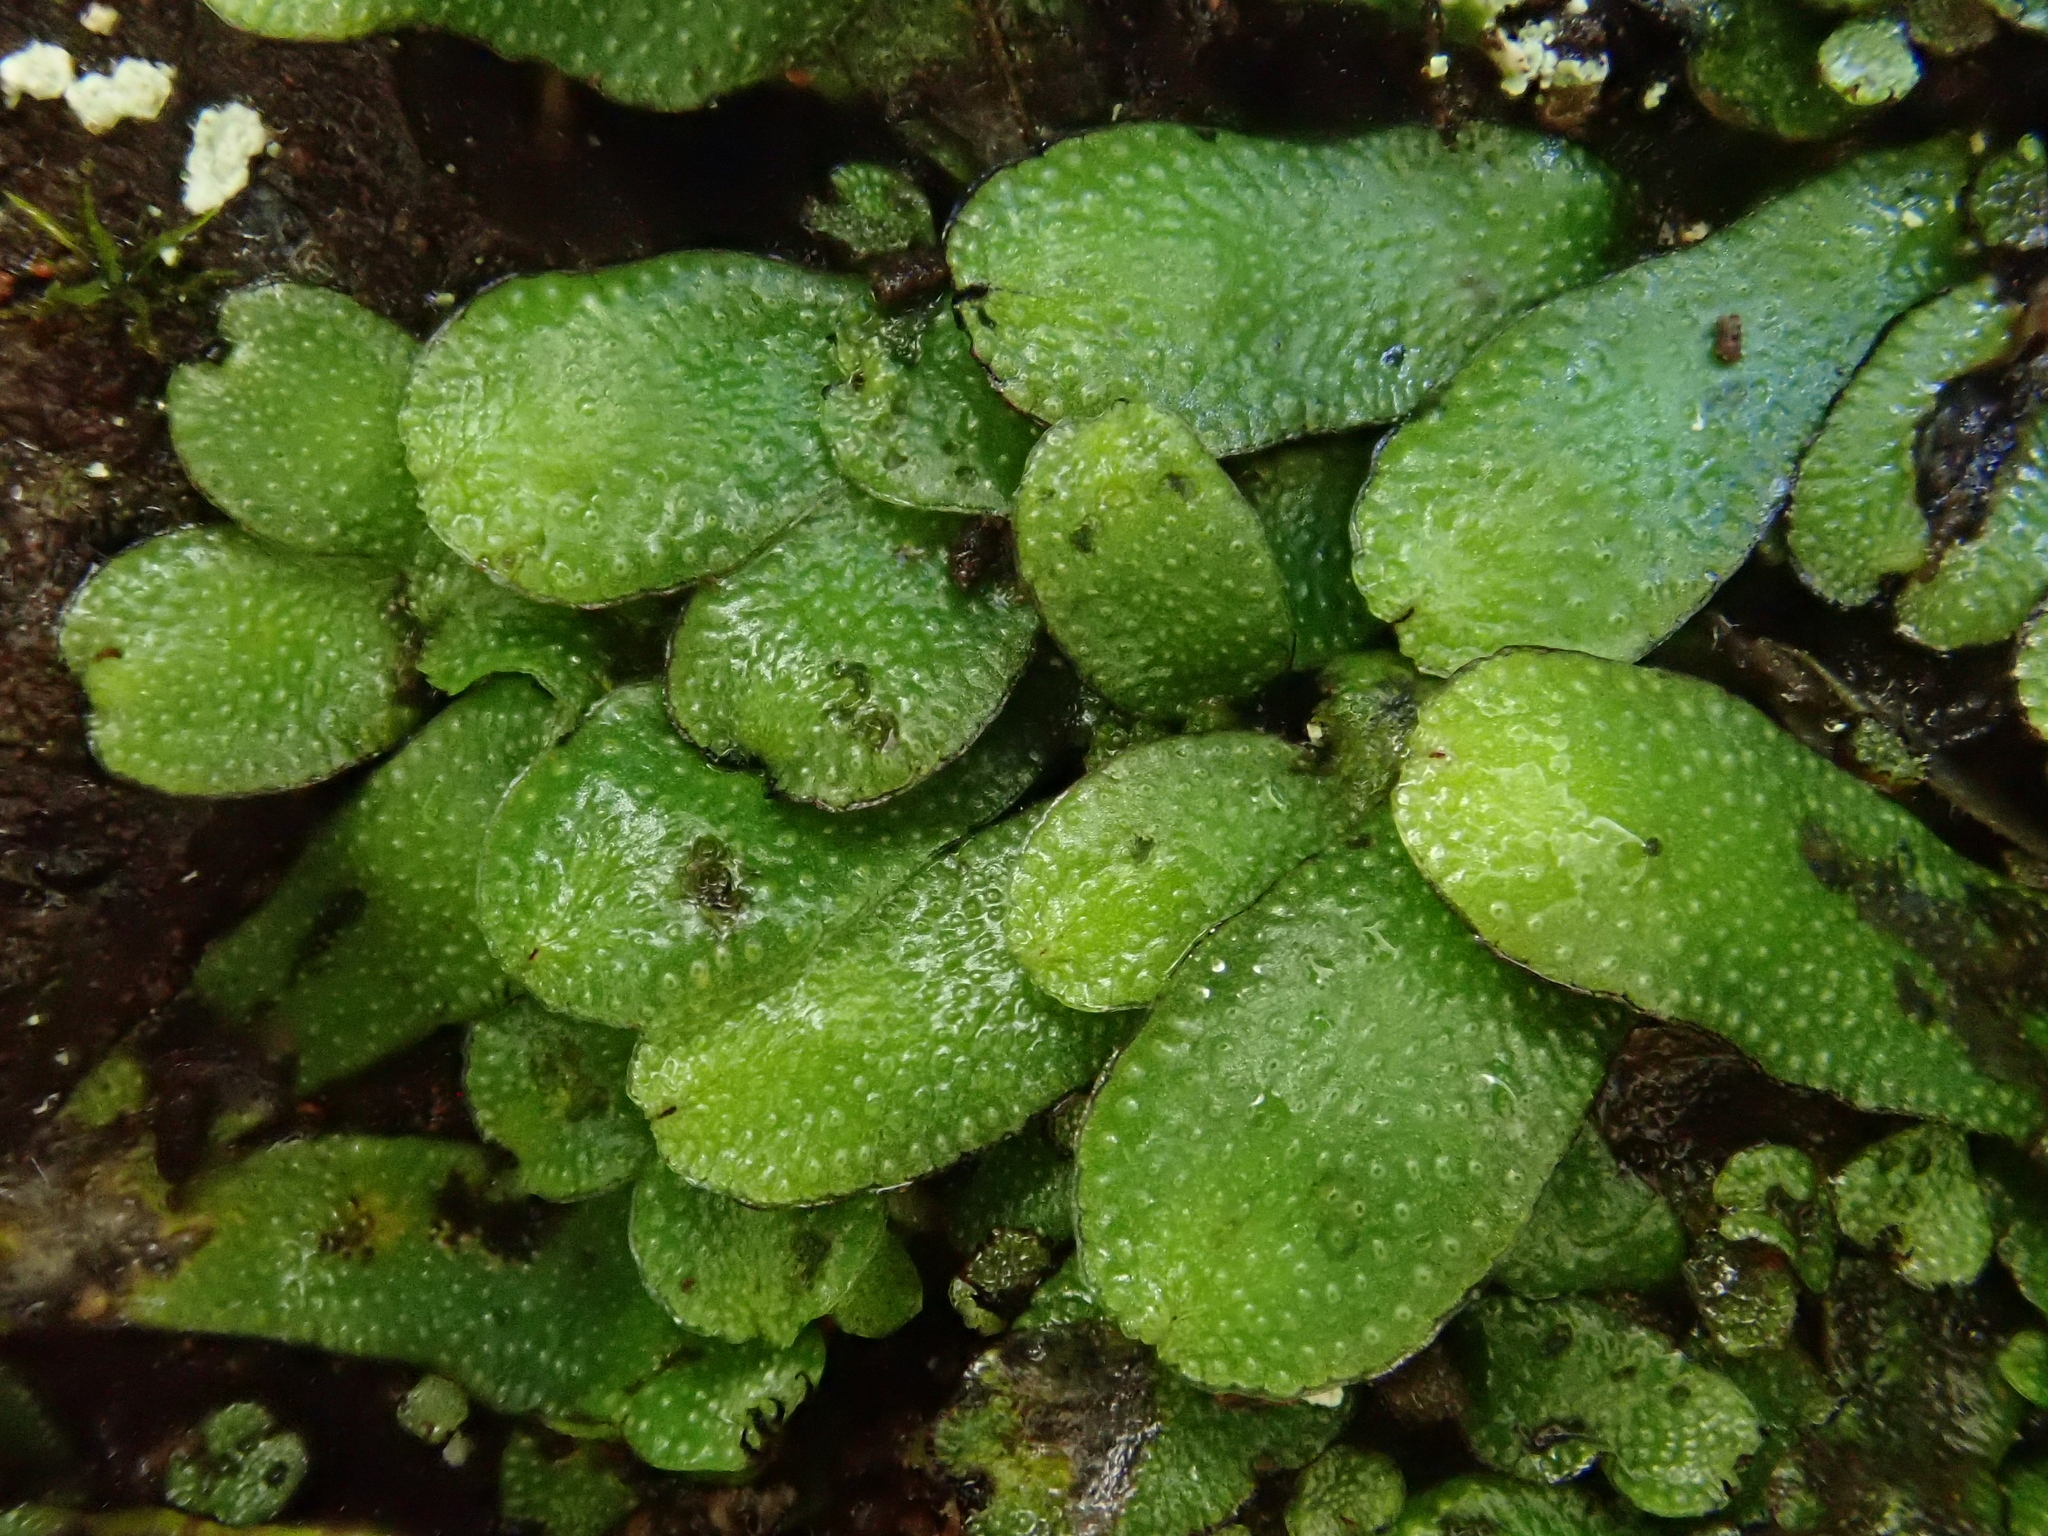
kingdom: Plantae
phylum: Marchantiophyta
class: Marchantiopsida
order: Marchantiales
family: Targioniaceae
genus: Targionia
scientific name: Targionia hypophylla
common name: Orobus-seed liverwort
